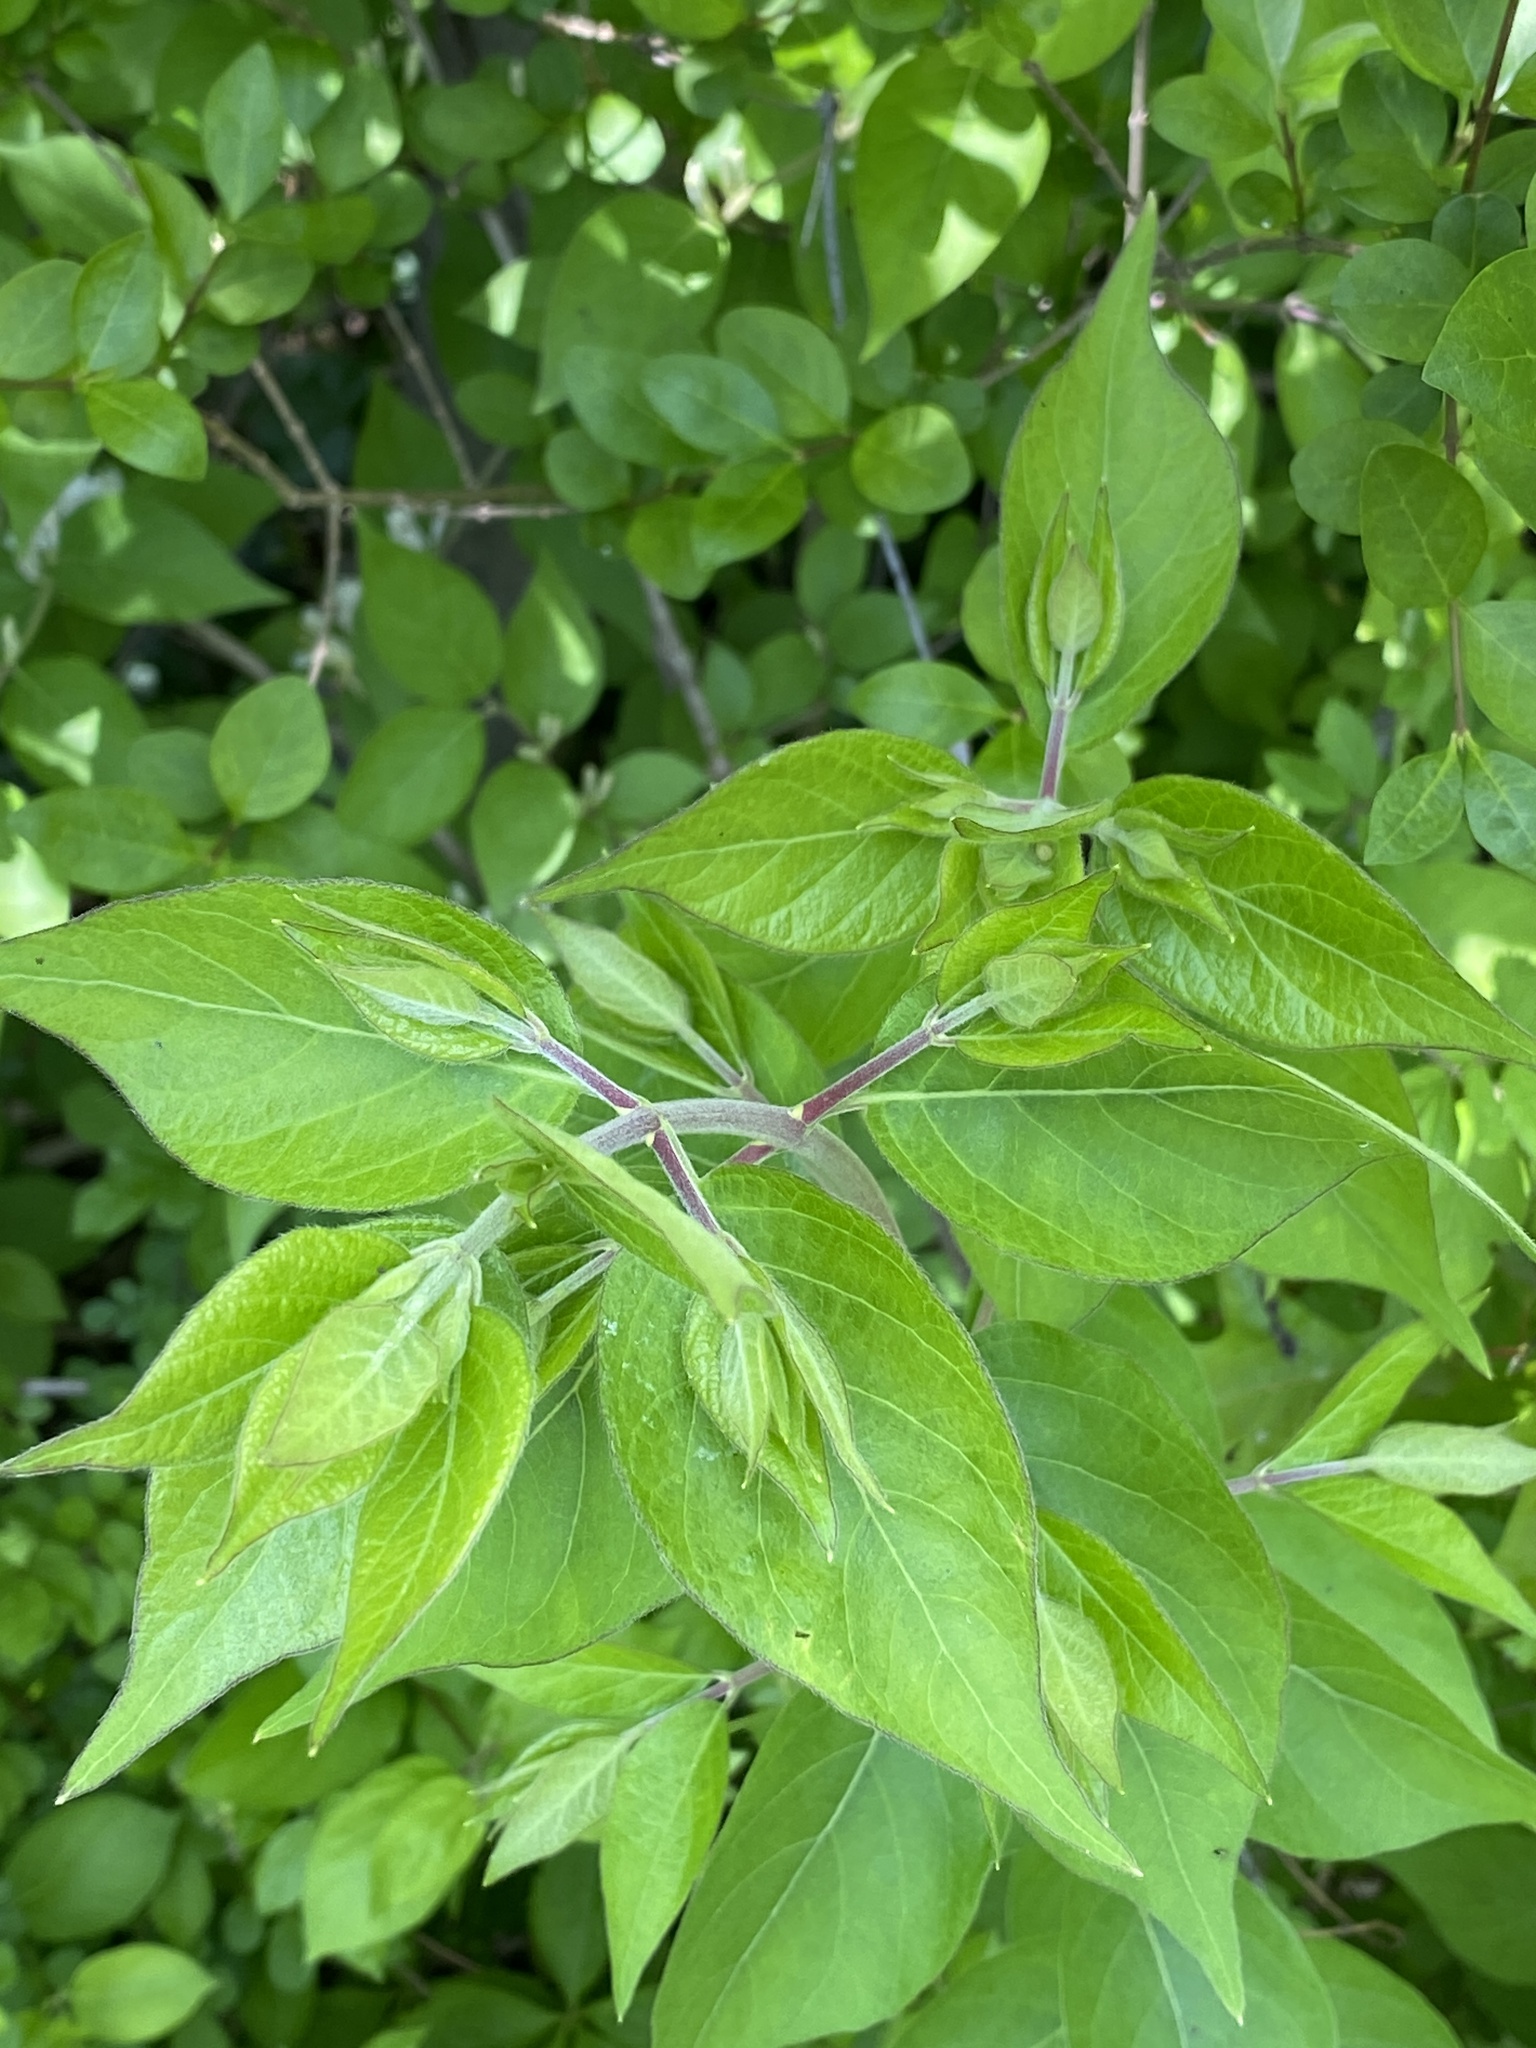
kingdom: Plantae
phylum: Tracheophyta
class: Magnoliopsida
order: Dipsacales
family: Caprifoliaceae
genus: Lonicera
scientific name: Lonicera maackii
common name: Amur honeysuckle
